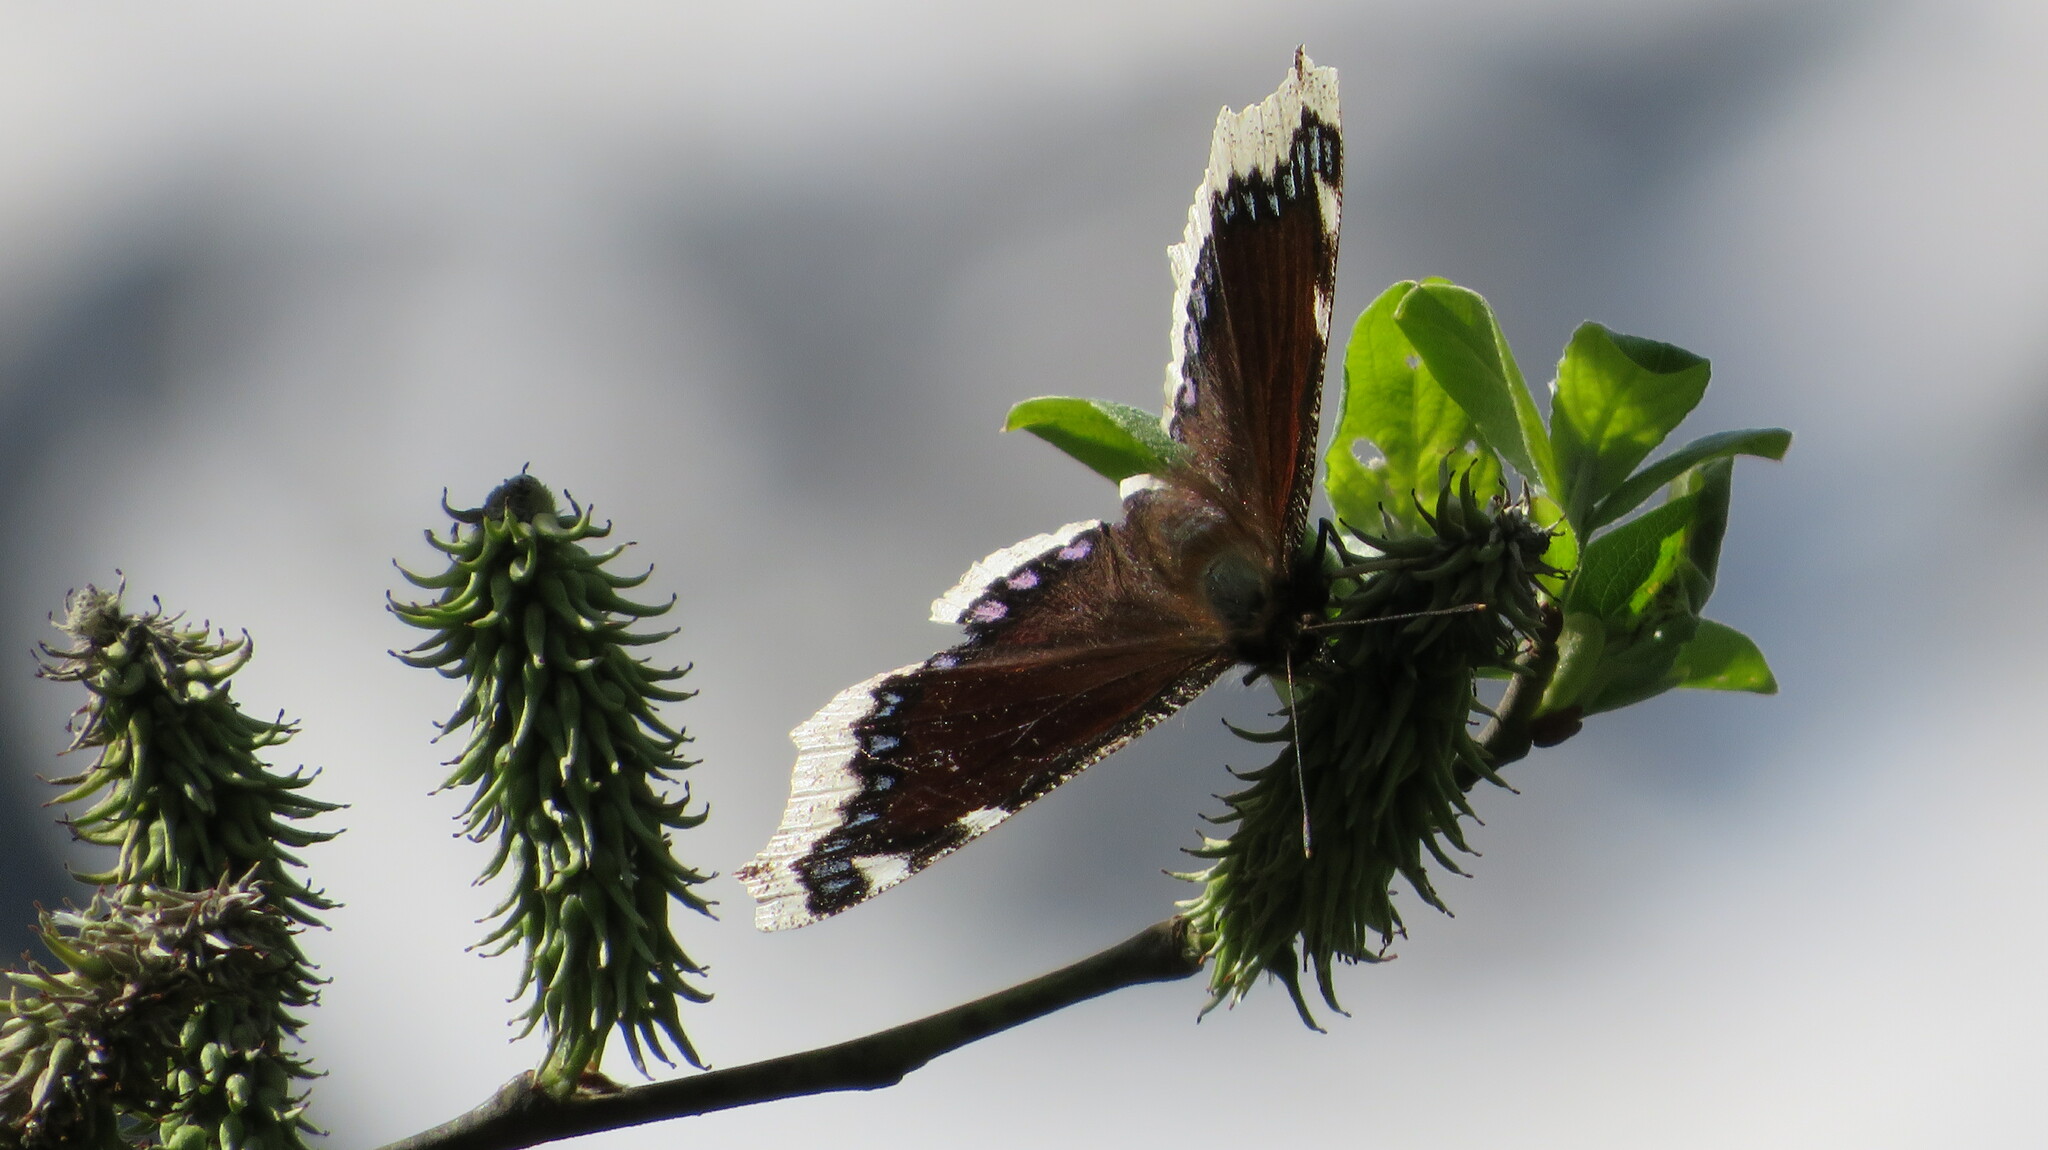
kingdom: Animalia
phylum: Arthropoda
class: Insecta
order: Lepidoptera
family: Nymphalidae
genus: Nymphalis
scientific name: Nymphalis antiopa
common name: Camberwell beauty
